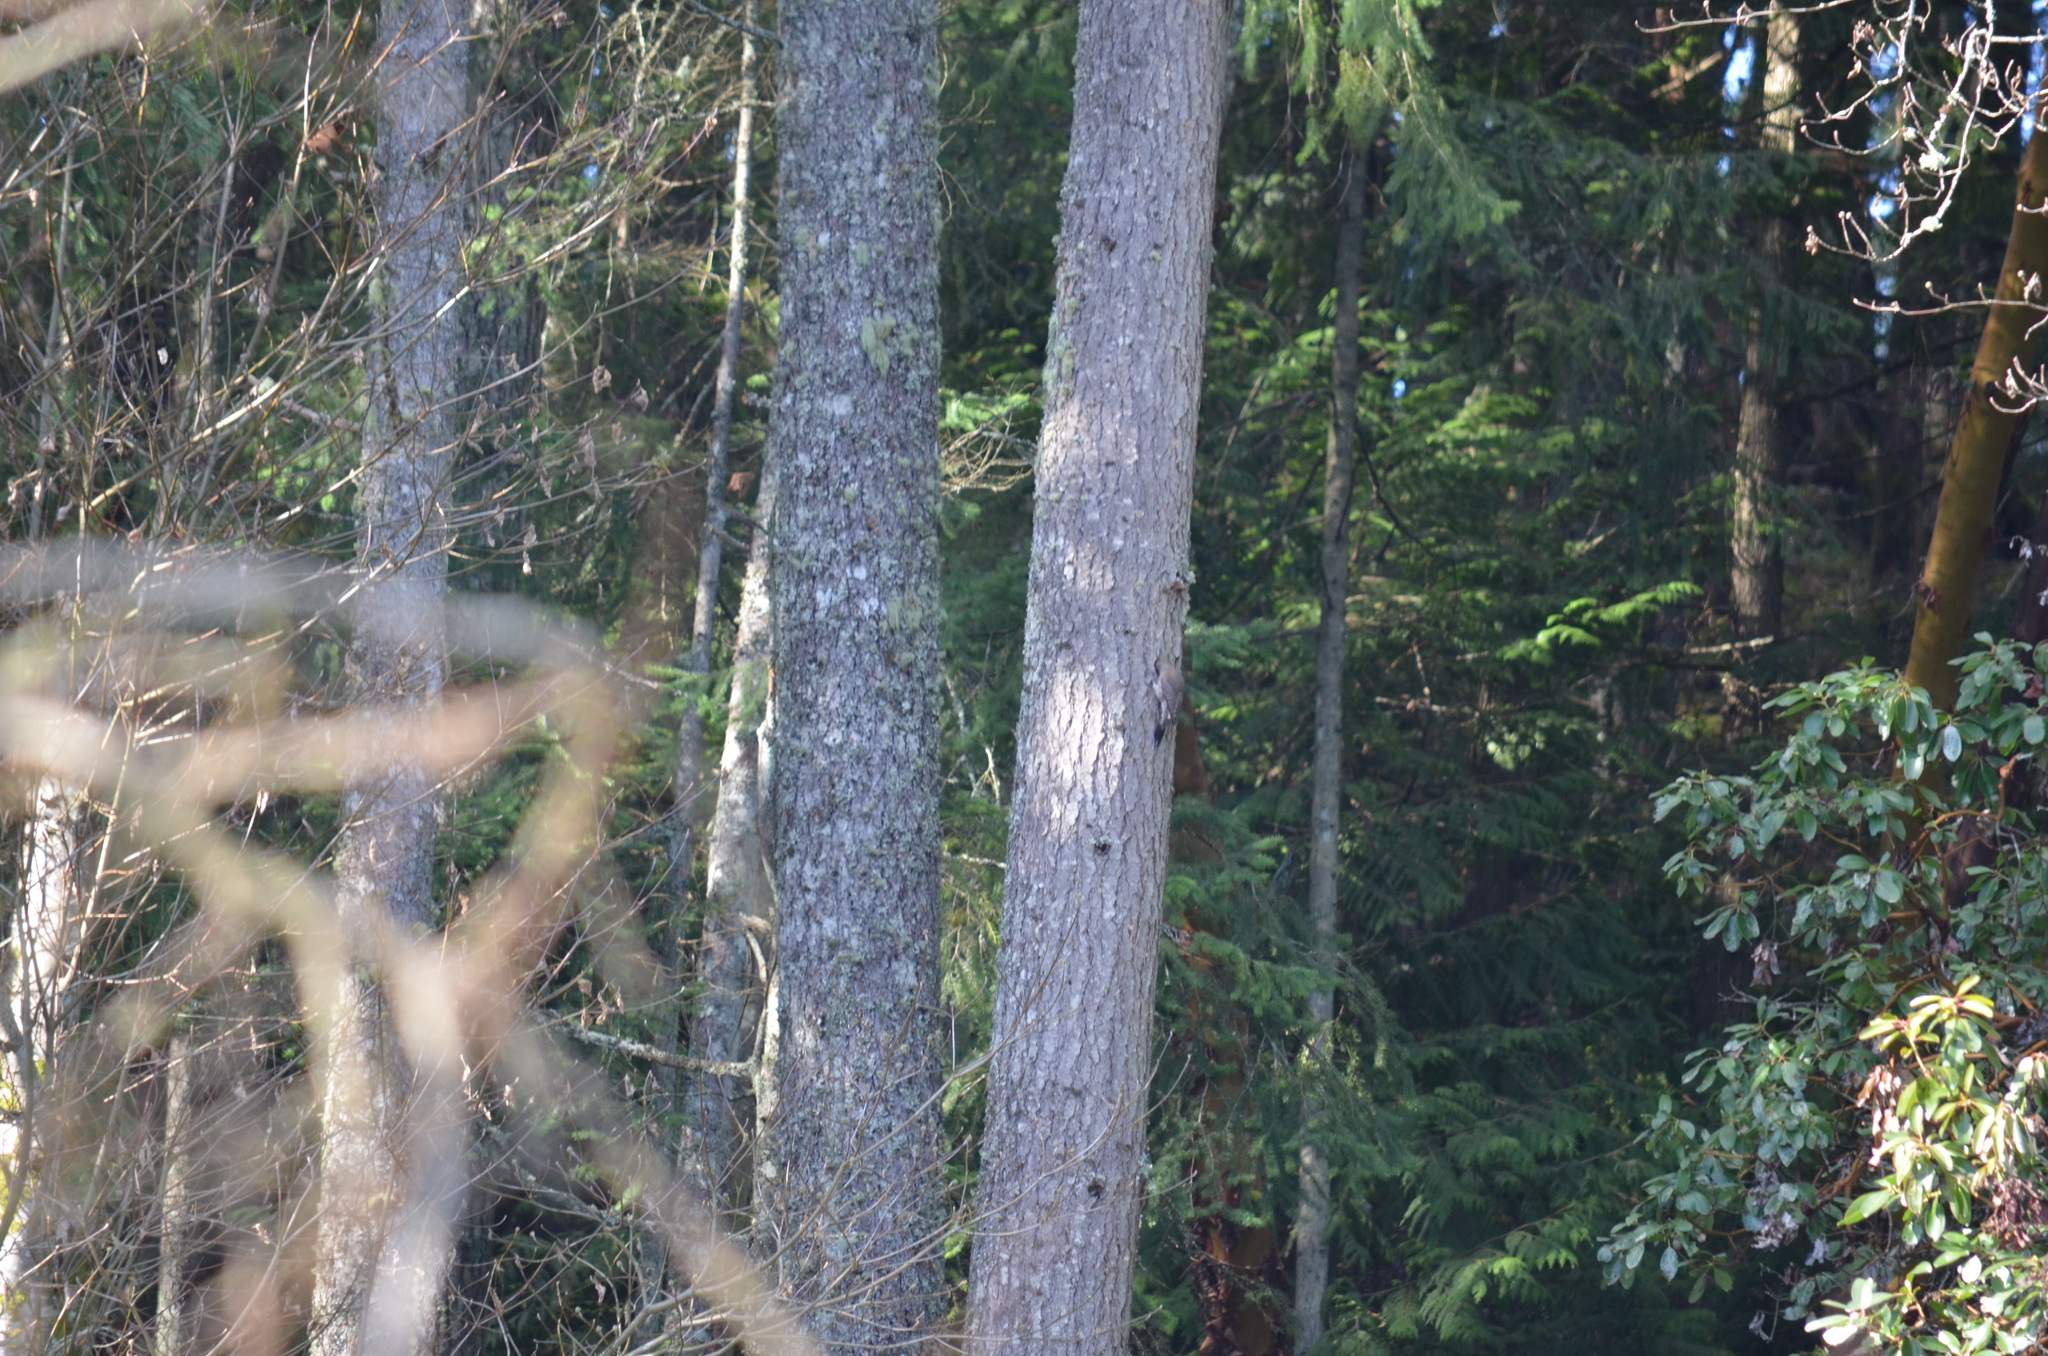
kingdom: Animalia
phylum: Chordata
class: Aves
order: Piciformes
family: Picidae
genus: Colaptes
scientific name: Colaptes auratus
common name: Northern flicker
